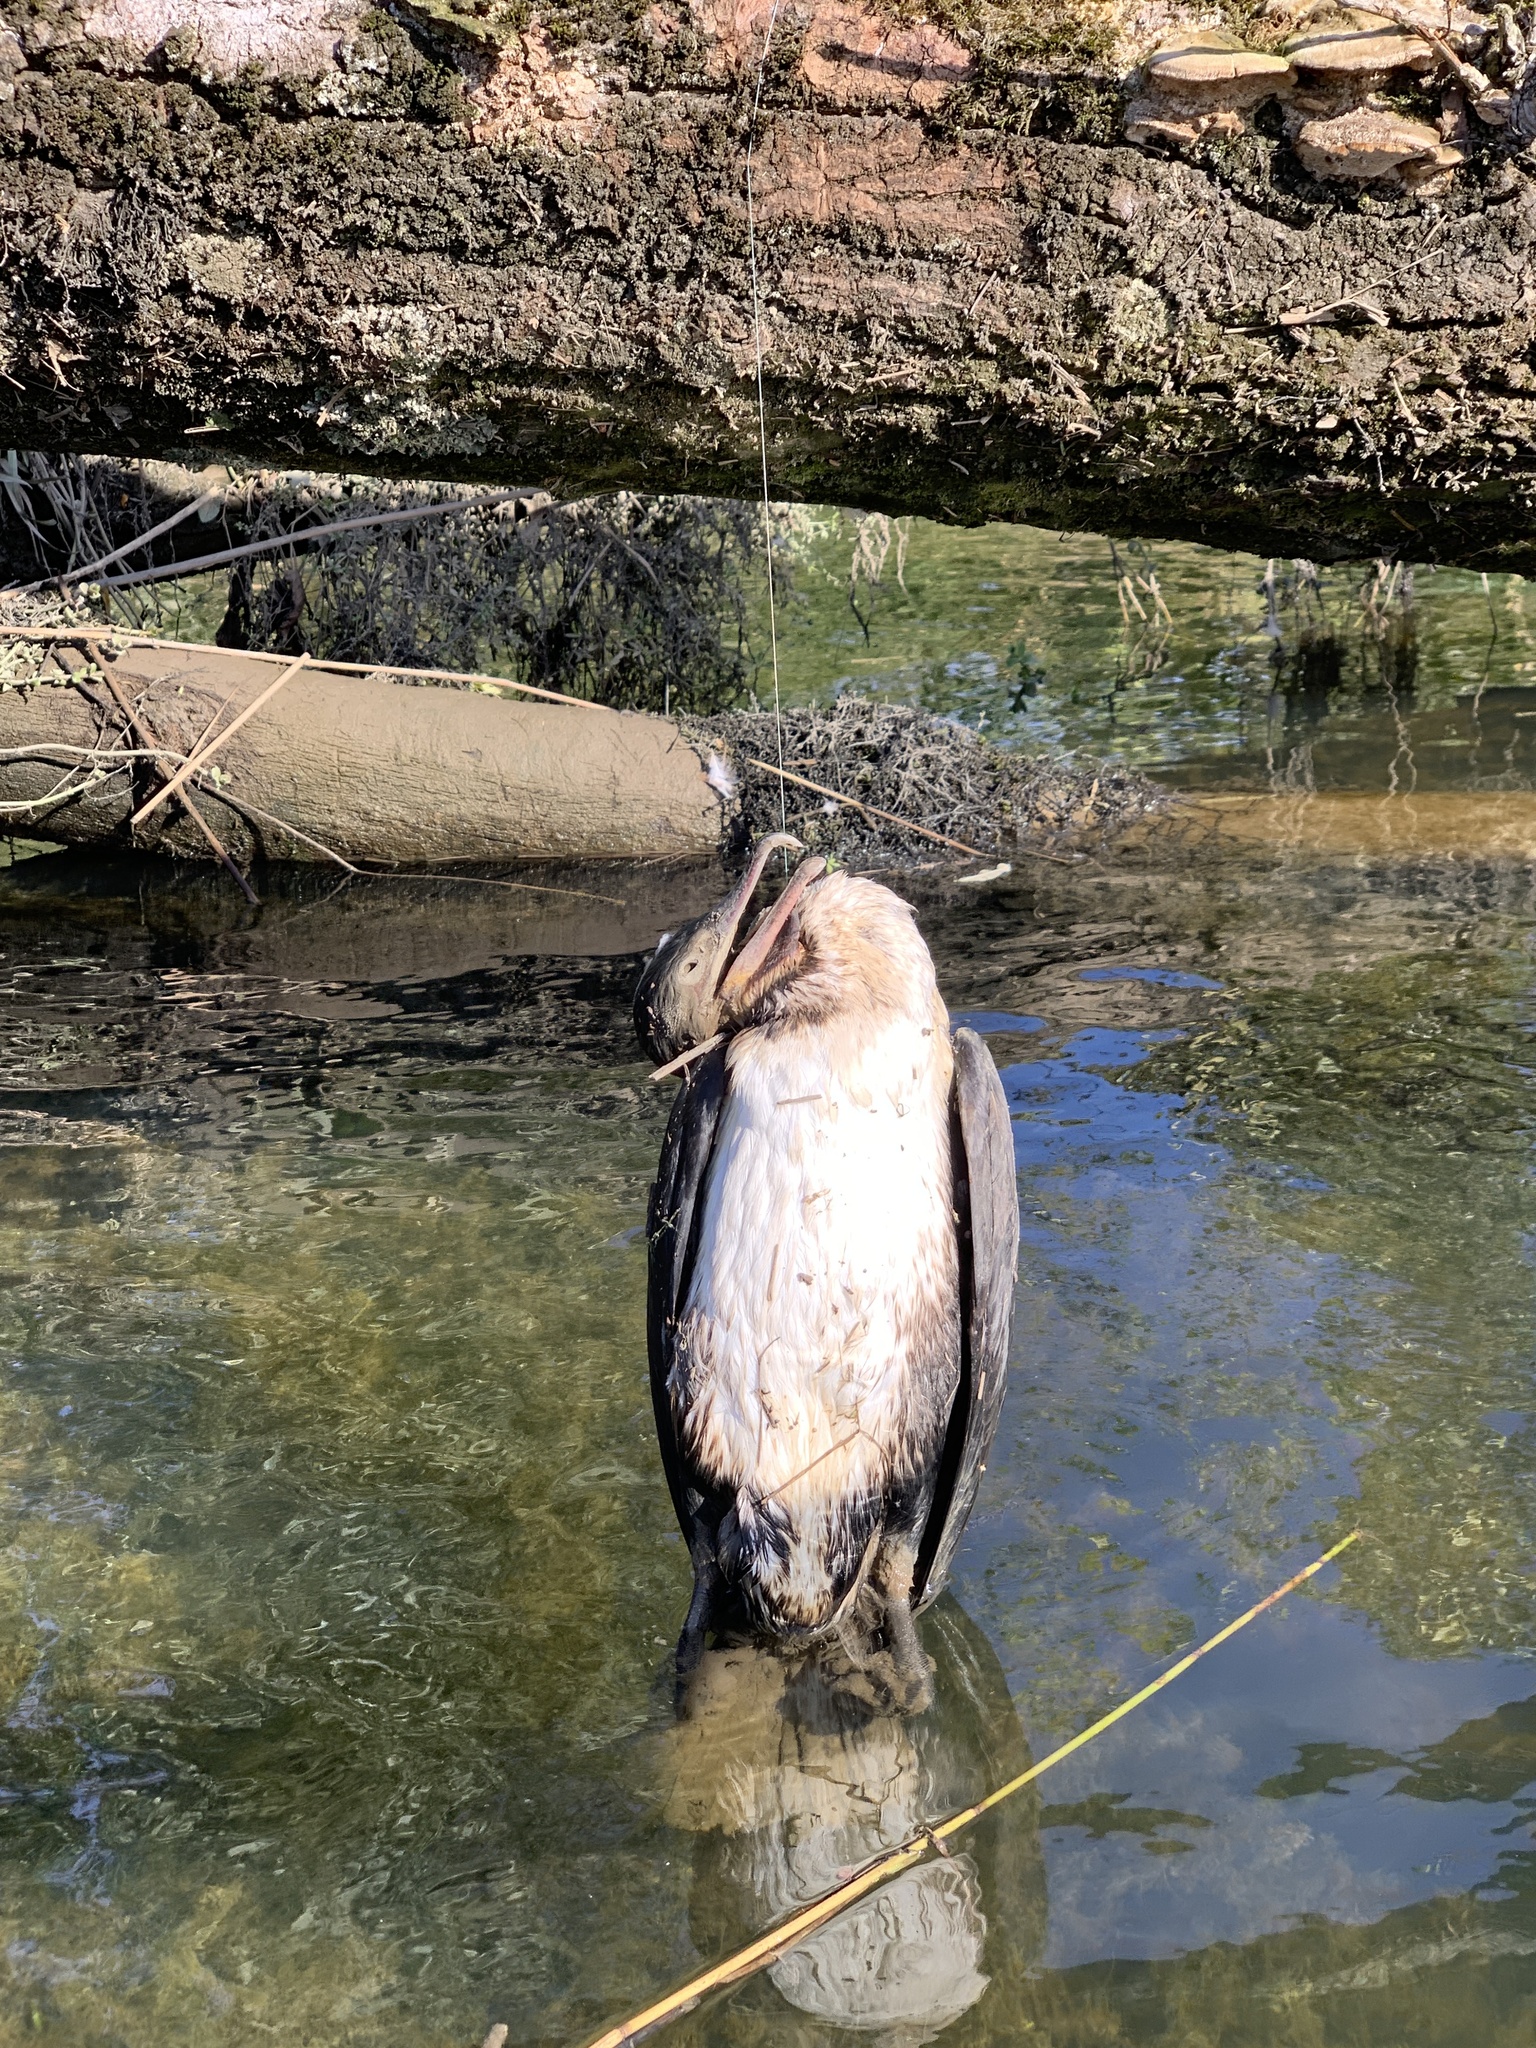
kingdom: Animalia
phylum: Chordata
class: Aves
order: Suliformes
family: Phalacrocoracidae
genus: Phalacrocorax
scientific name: Phalacrocorax carbo
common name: Great cormorant
